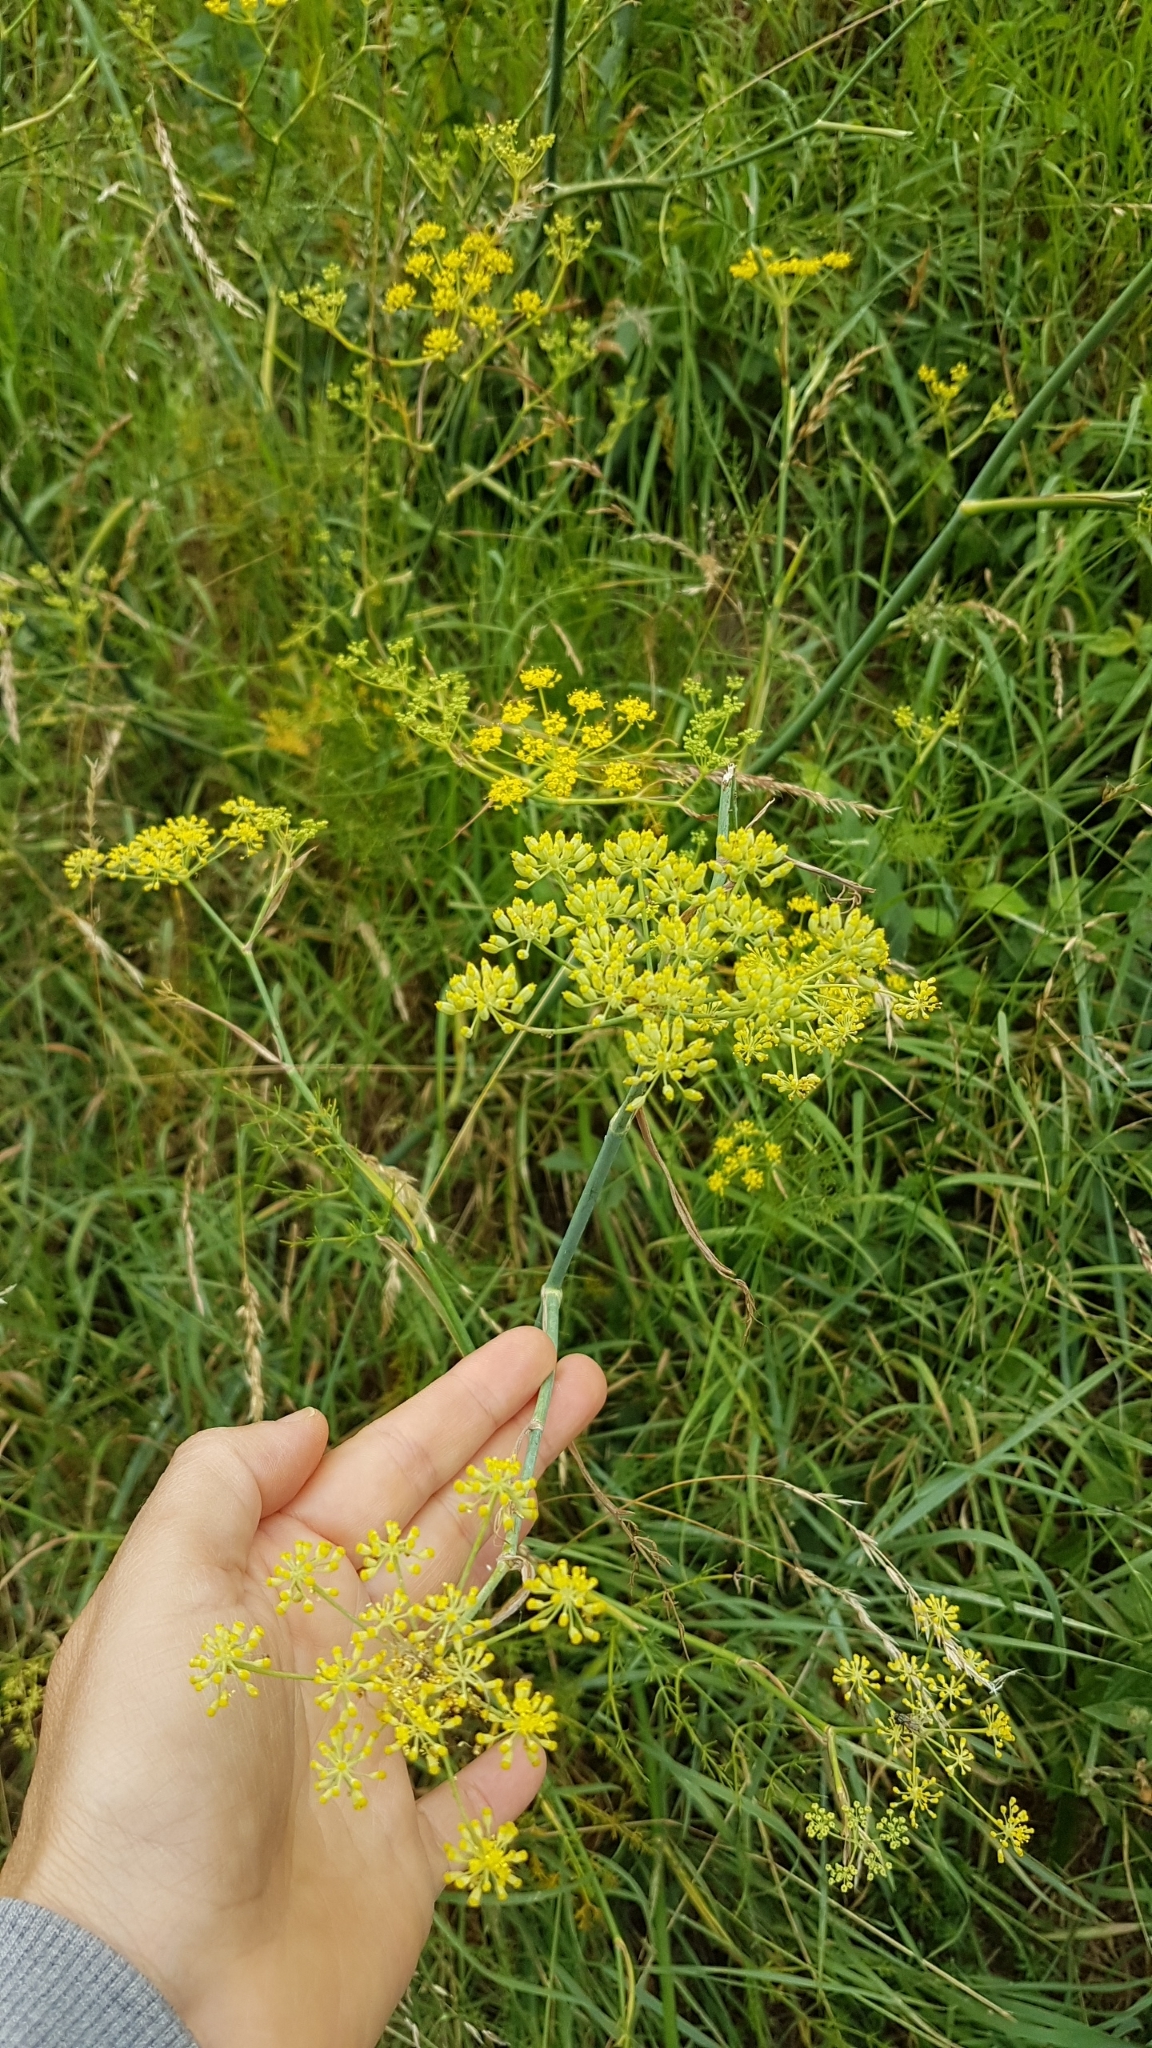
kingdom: Plantae
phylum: Tracheophyta
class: Magnoliopsida
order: Apiales
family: Apiaceae
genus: Foeniculum
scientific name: Foeniculum vulgare
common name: Fennel
